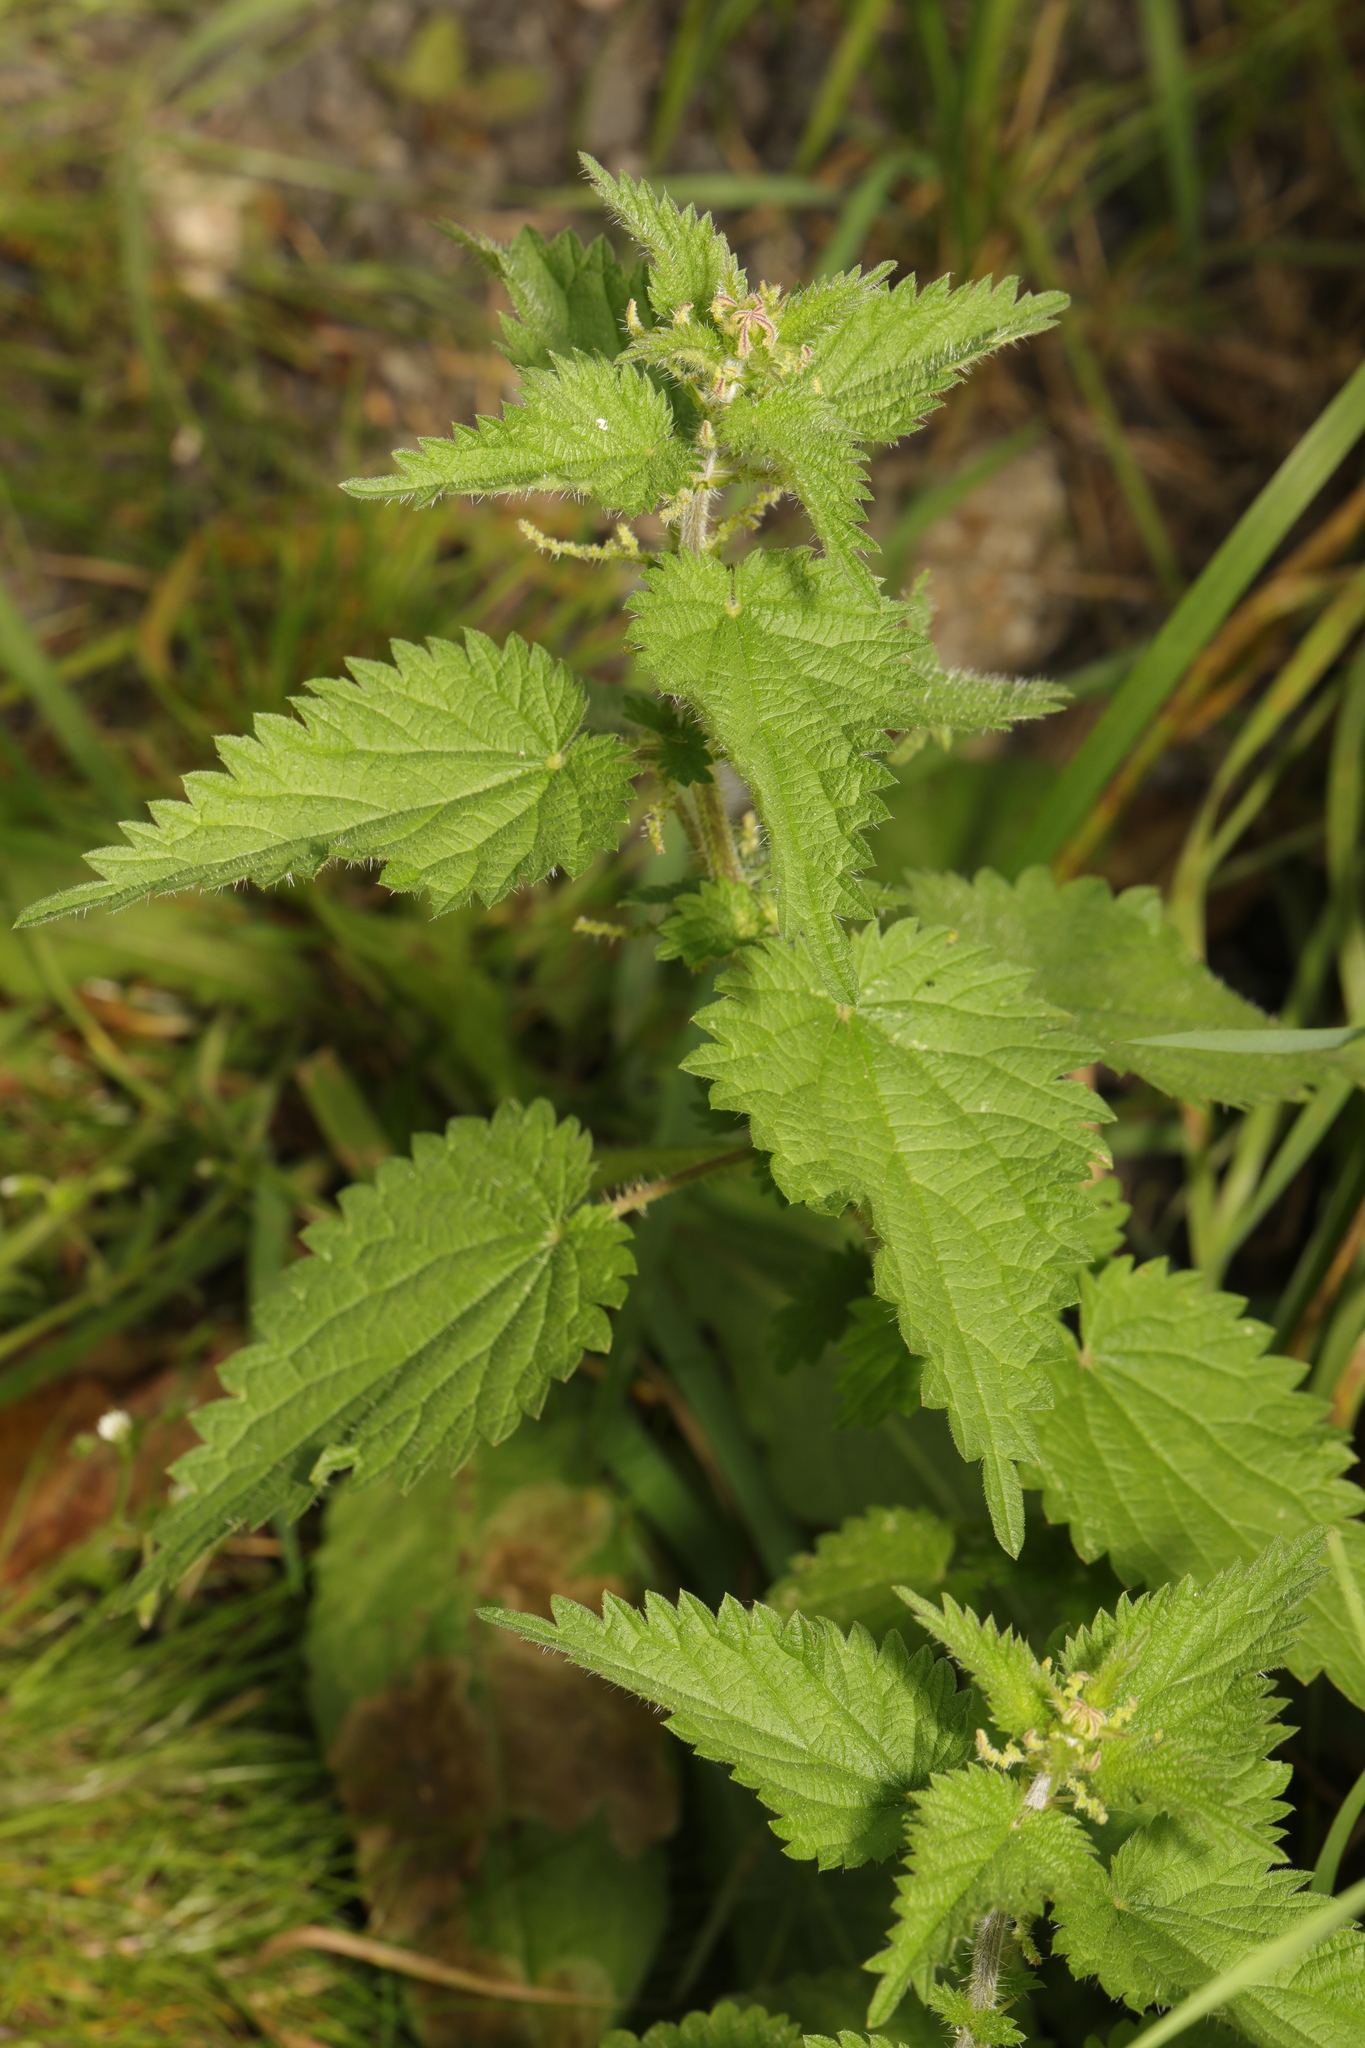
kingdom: Plantae
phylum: Tracheophyta
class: Magnoliopsida
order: Rosales
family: Urticaceae
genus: Urtica
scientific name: Urtica dioica
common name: Common nettle
